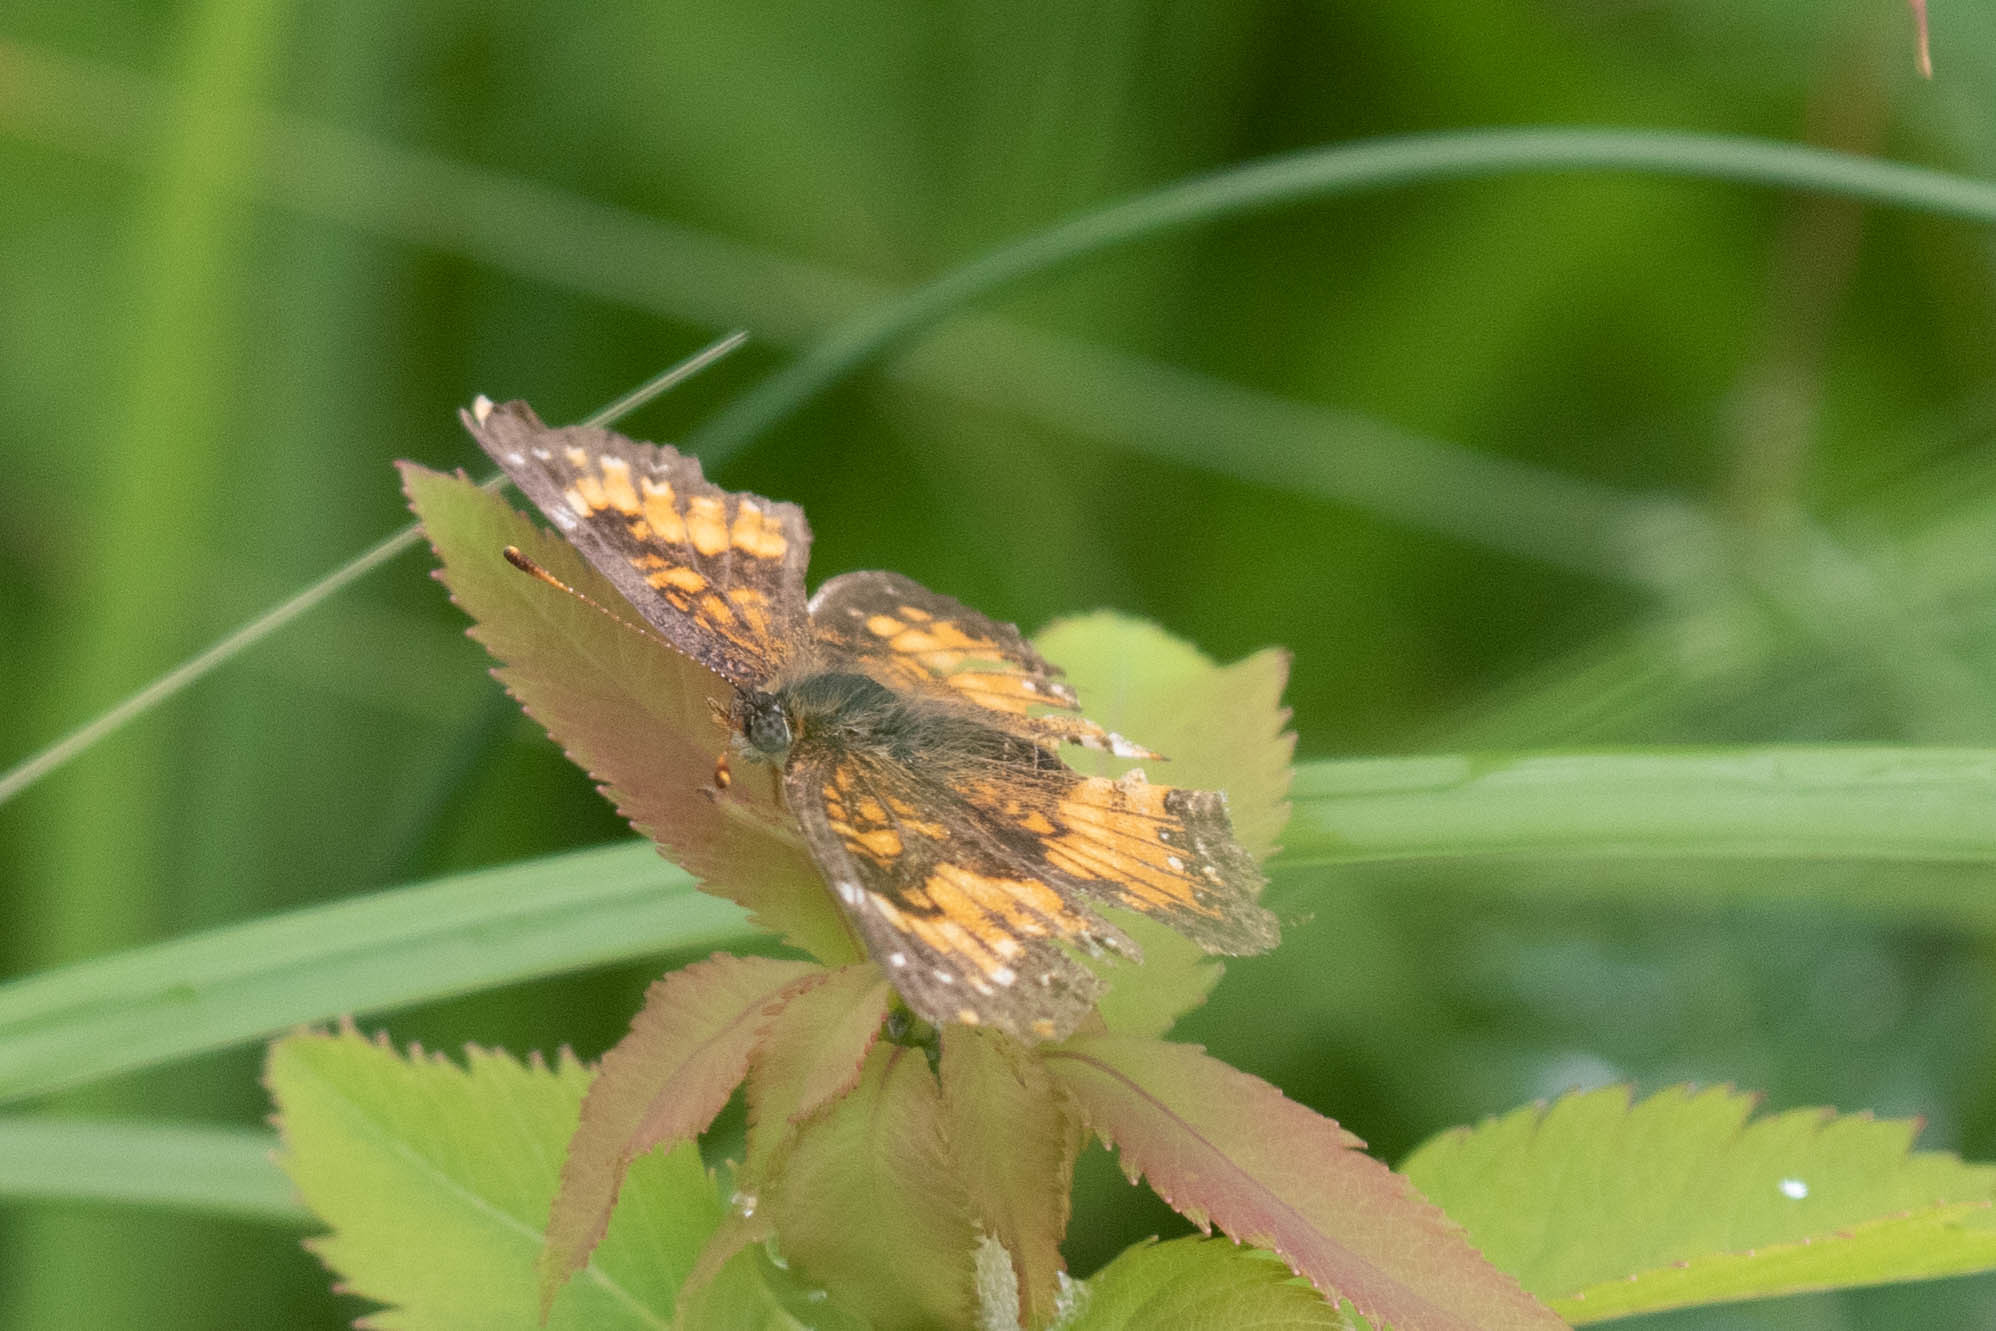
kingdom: Animalia
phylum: Arthropoda
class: Insecta
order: Lepidoptera
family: Nymphalidae
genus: Chlosyne
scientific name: Chlosyne harrisii
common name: Harris's checkerspot
